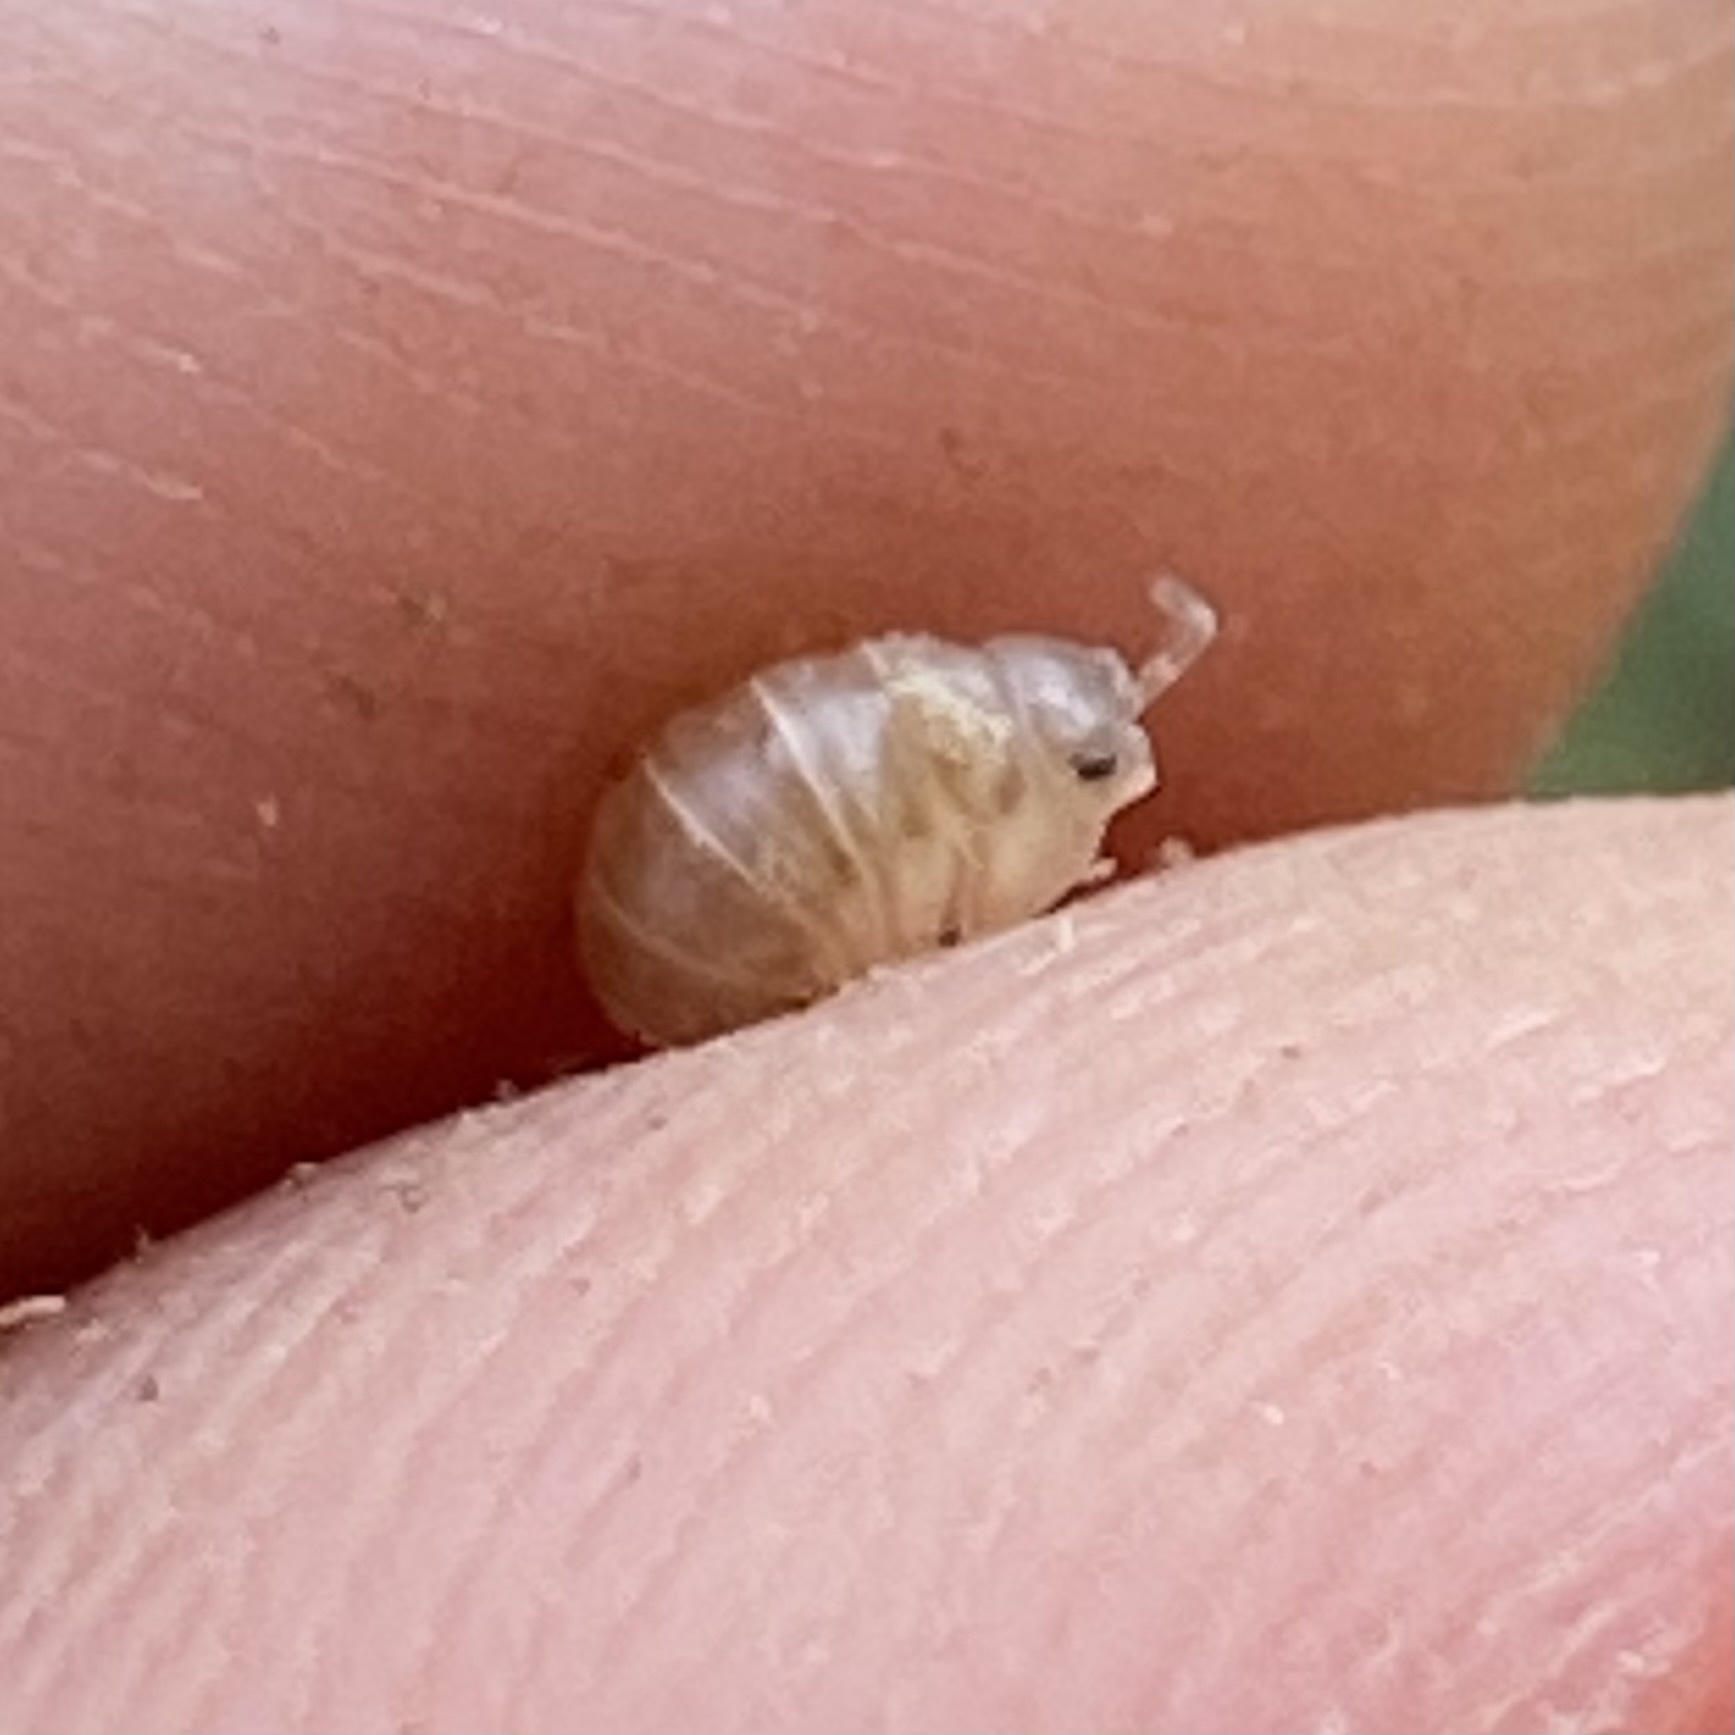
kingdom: Animalia
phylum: Arthropoda
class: Malacostraca
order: Isopoda
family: Armadillidiidae
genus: Armadillidium
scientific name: Armadillidium nasatum
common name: Isopod
